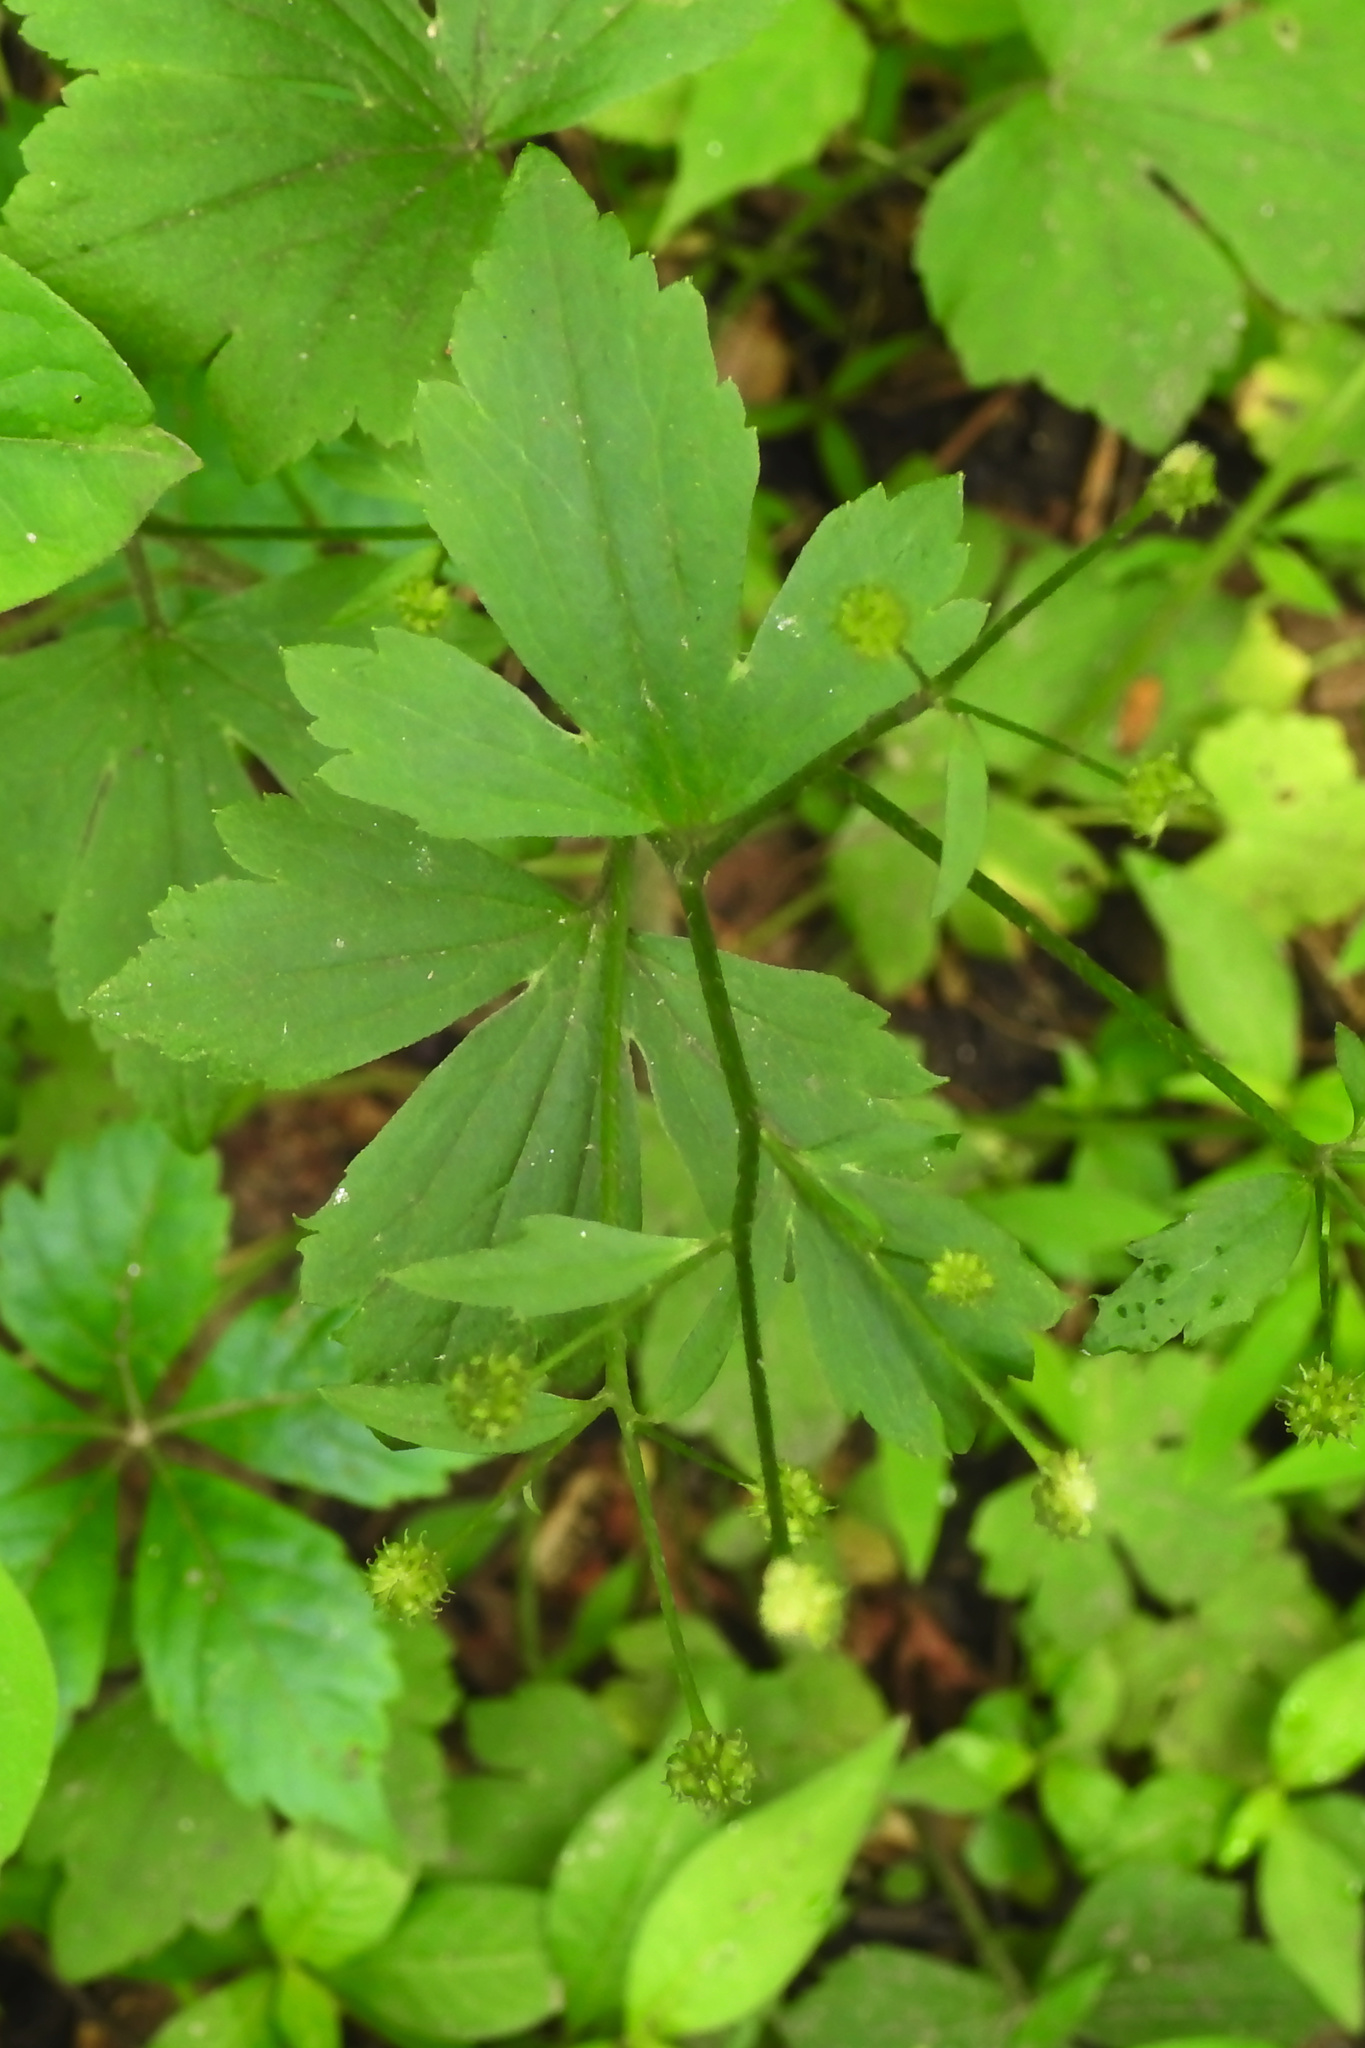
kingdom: Plantae
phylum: Tracheophyta
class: Magnoliopsida
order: Ranunculales
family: Ranunculaceae
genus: Ranunculus
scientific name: Ranunculus recurvatus
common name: Blisterwort
